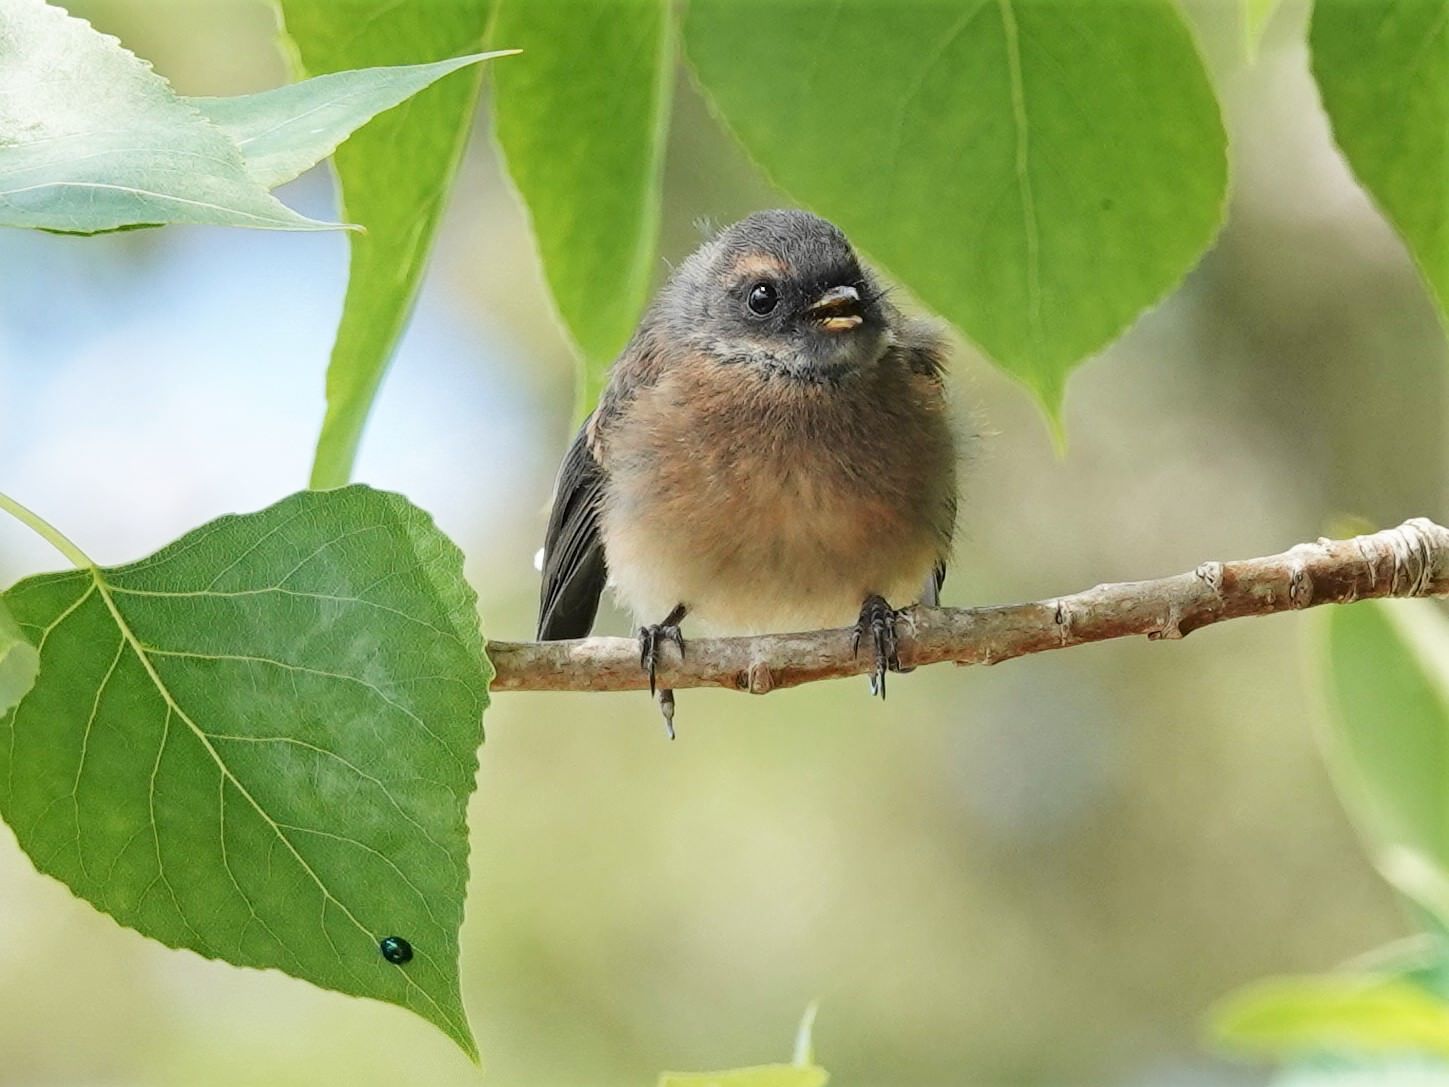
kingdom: Animalia
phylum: Chordata
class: Aves
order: Passeriformes
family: Rhipiduridae
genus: Rhipidura
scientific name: Rhipidura fuliginosa
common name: New zealand fantail
